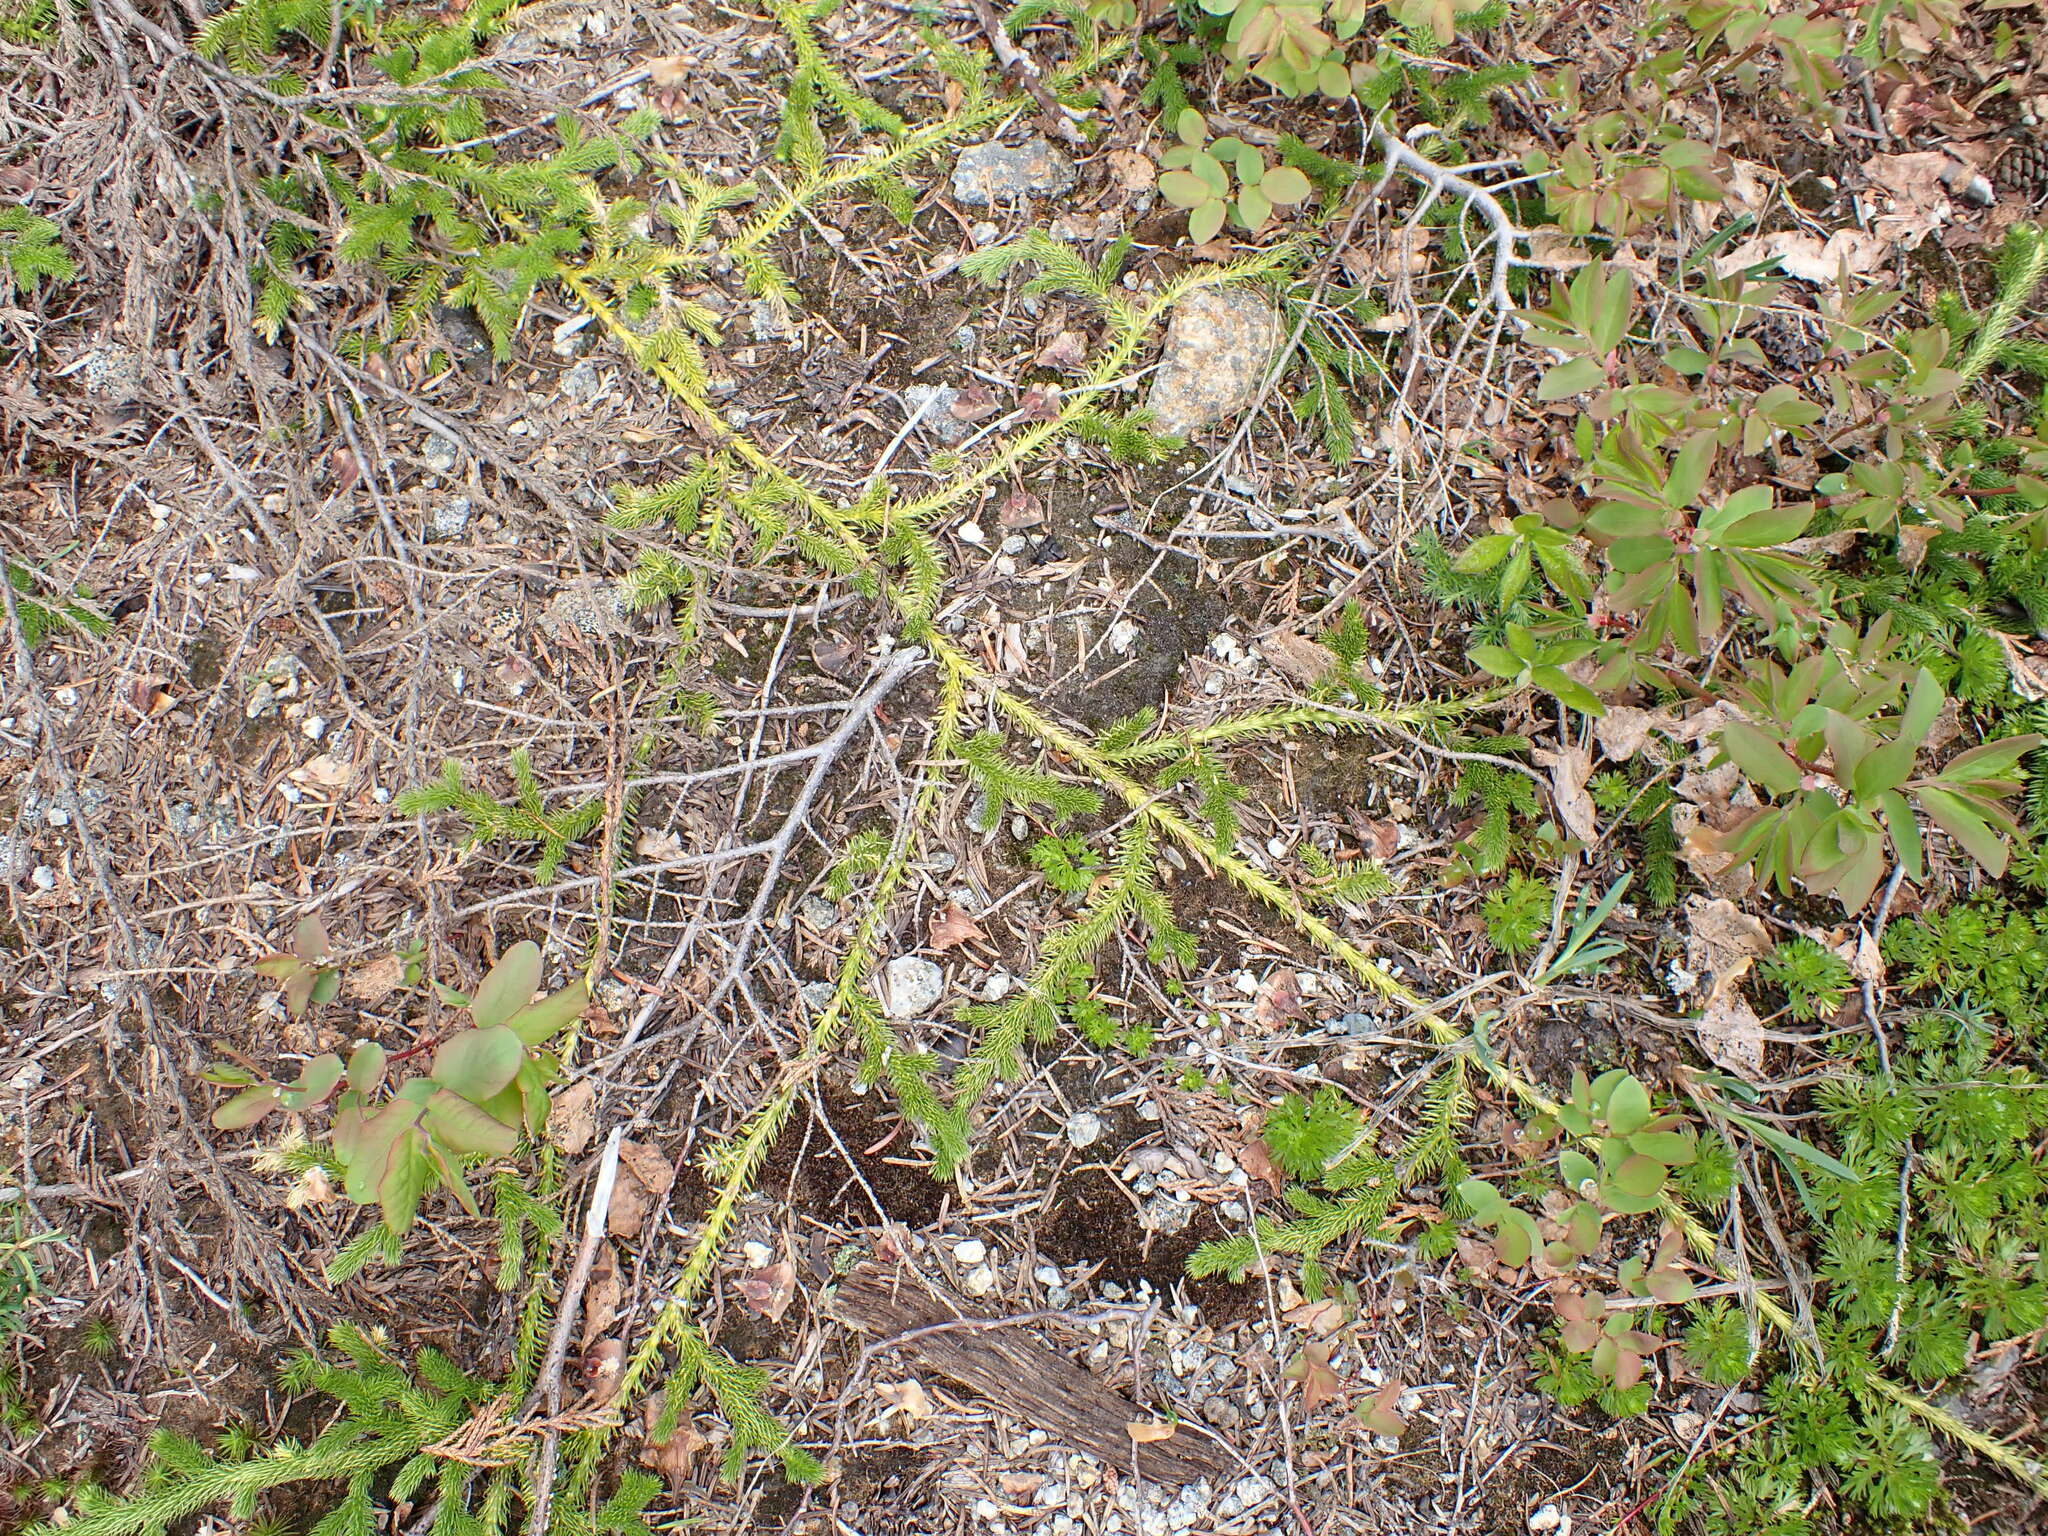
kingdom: Plantae
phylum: Tracheophyta
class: Lycopodiopsida
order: Lycopodiales
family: Lycopodiaceae
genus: Lycopodium
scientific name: Lycopodium clavatum
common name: Stag's-horn clubmoss
